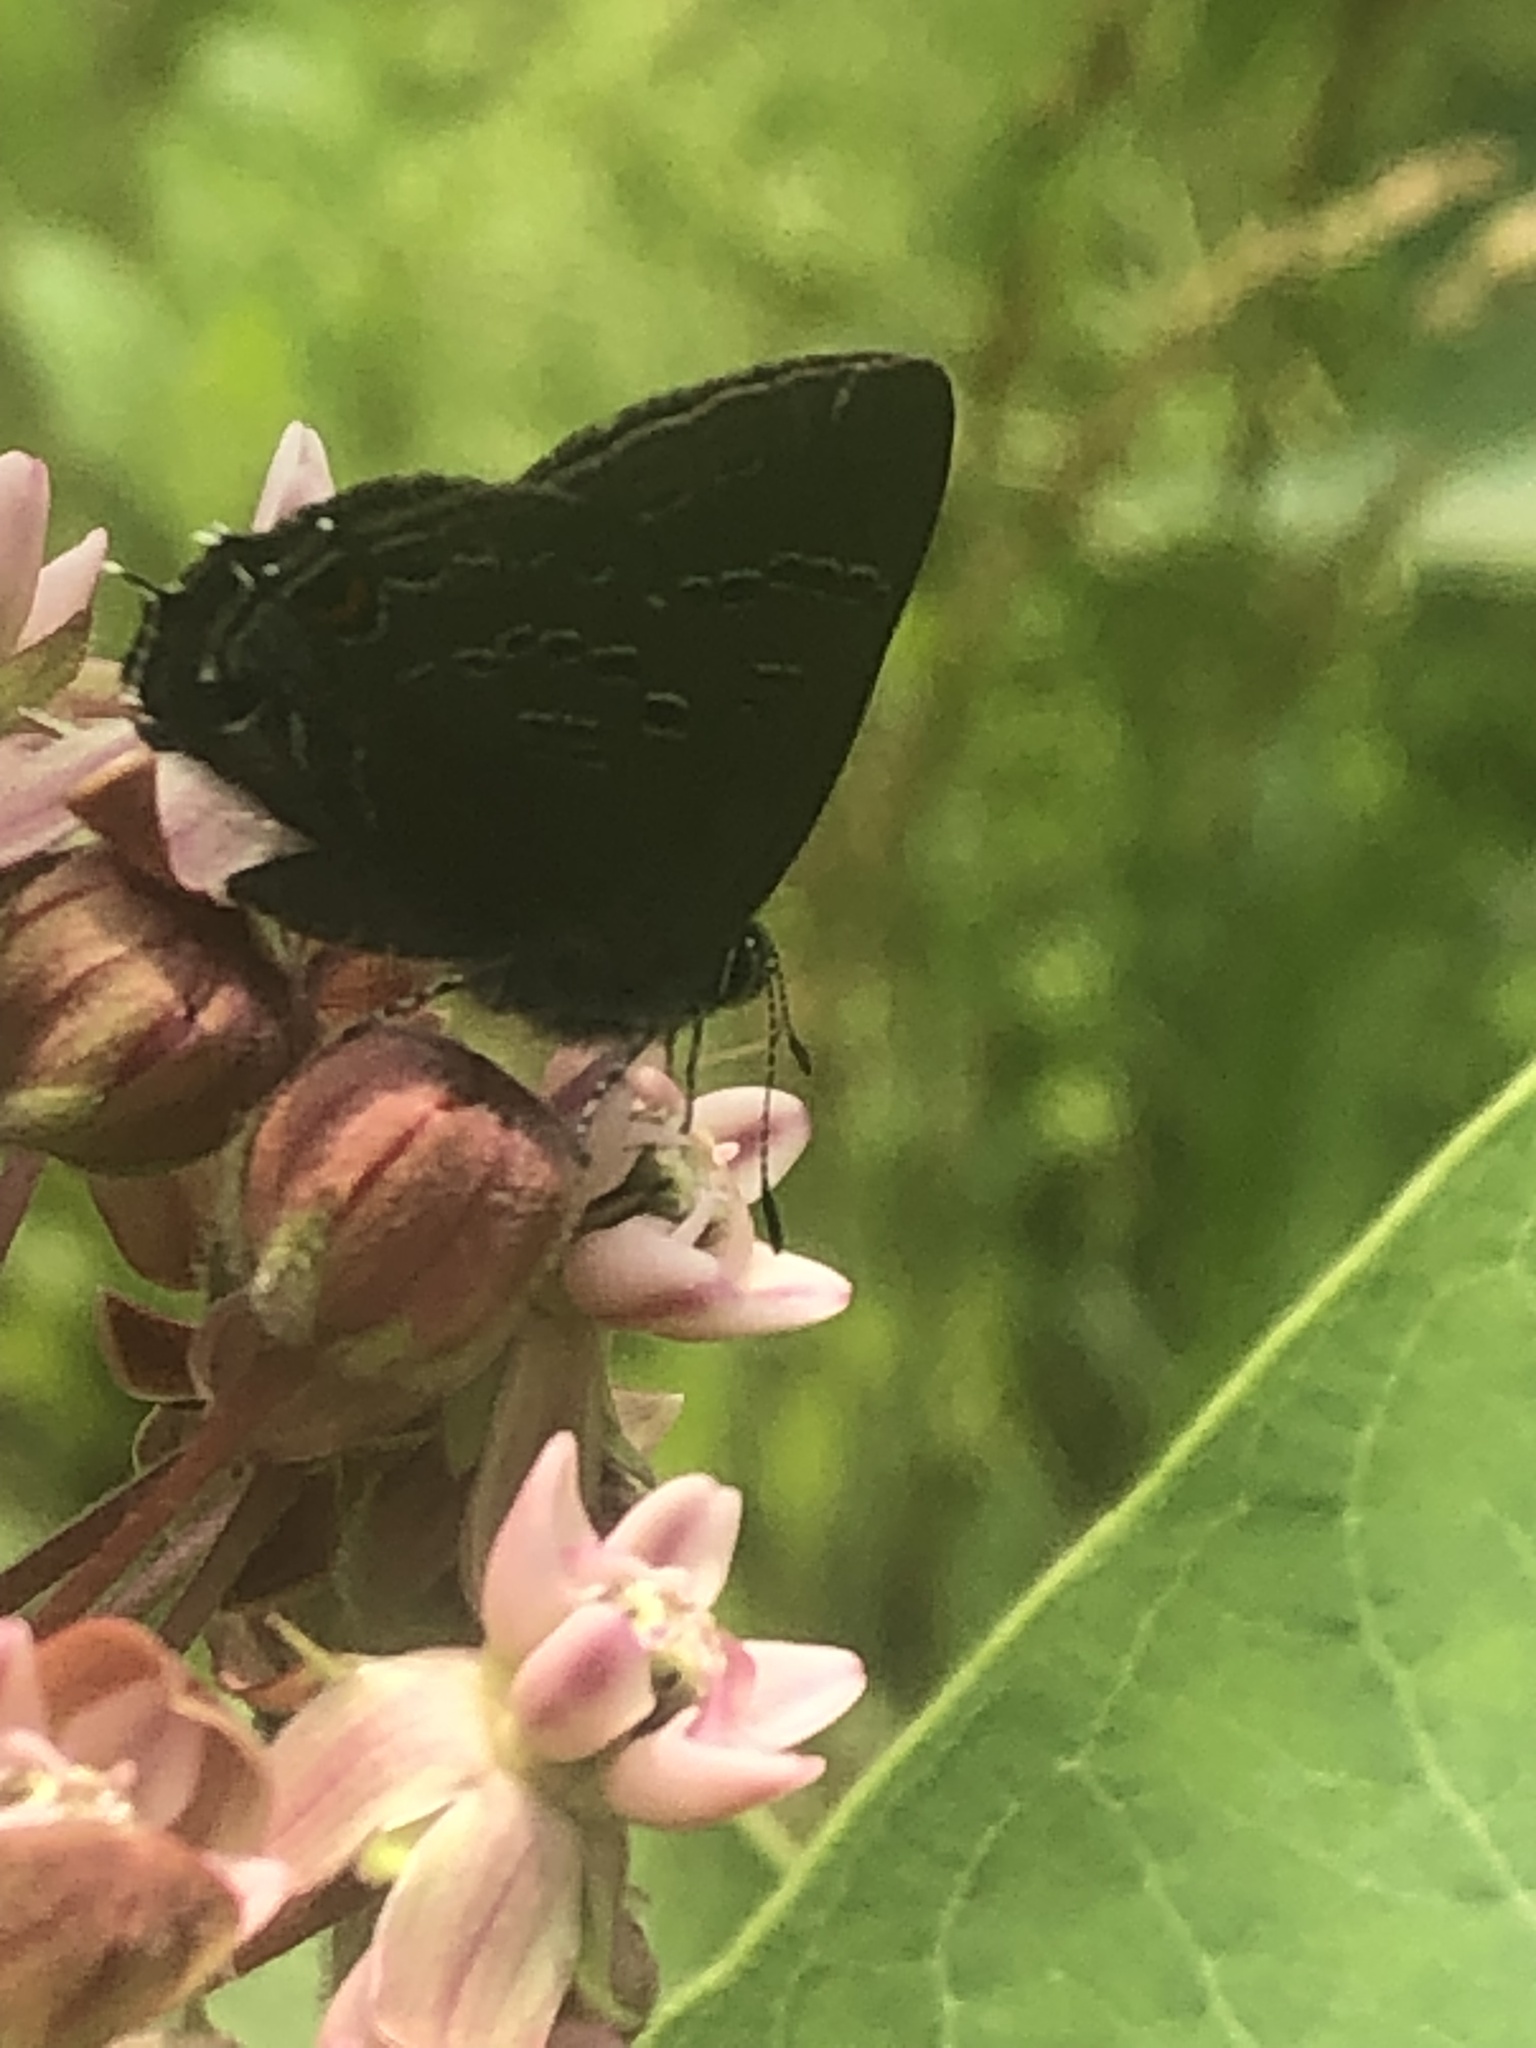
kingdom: Animalia
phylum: Arthropoda
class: Insecta
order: Lepidoptera
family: Lycaenidae
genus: Satyrium
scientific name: Satyrium calanus
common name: Banded hairstreak
